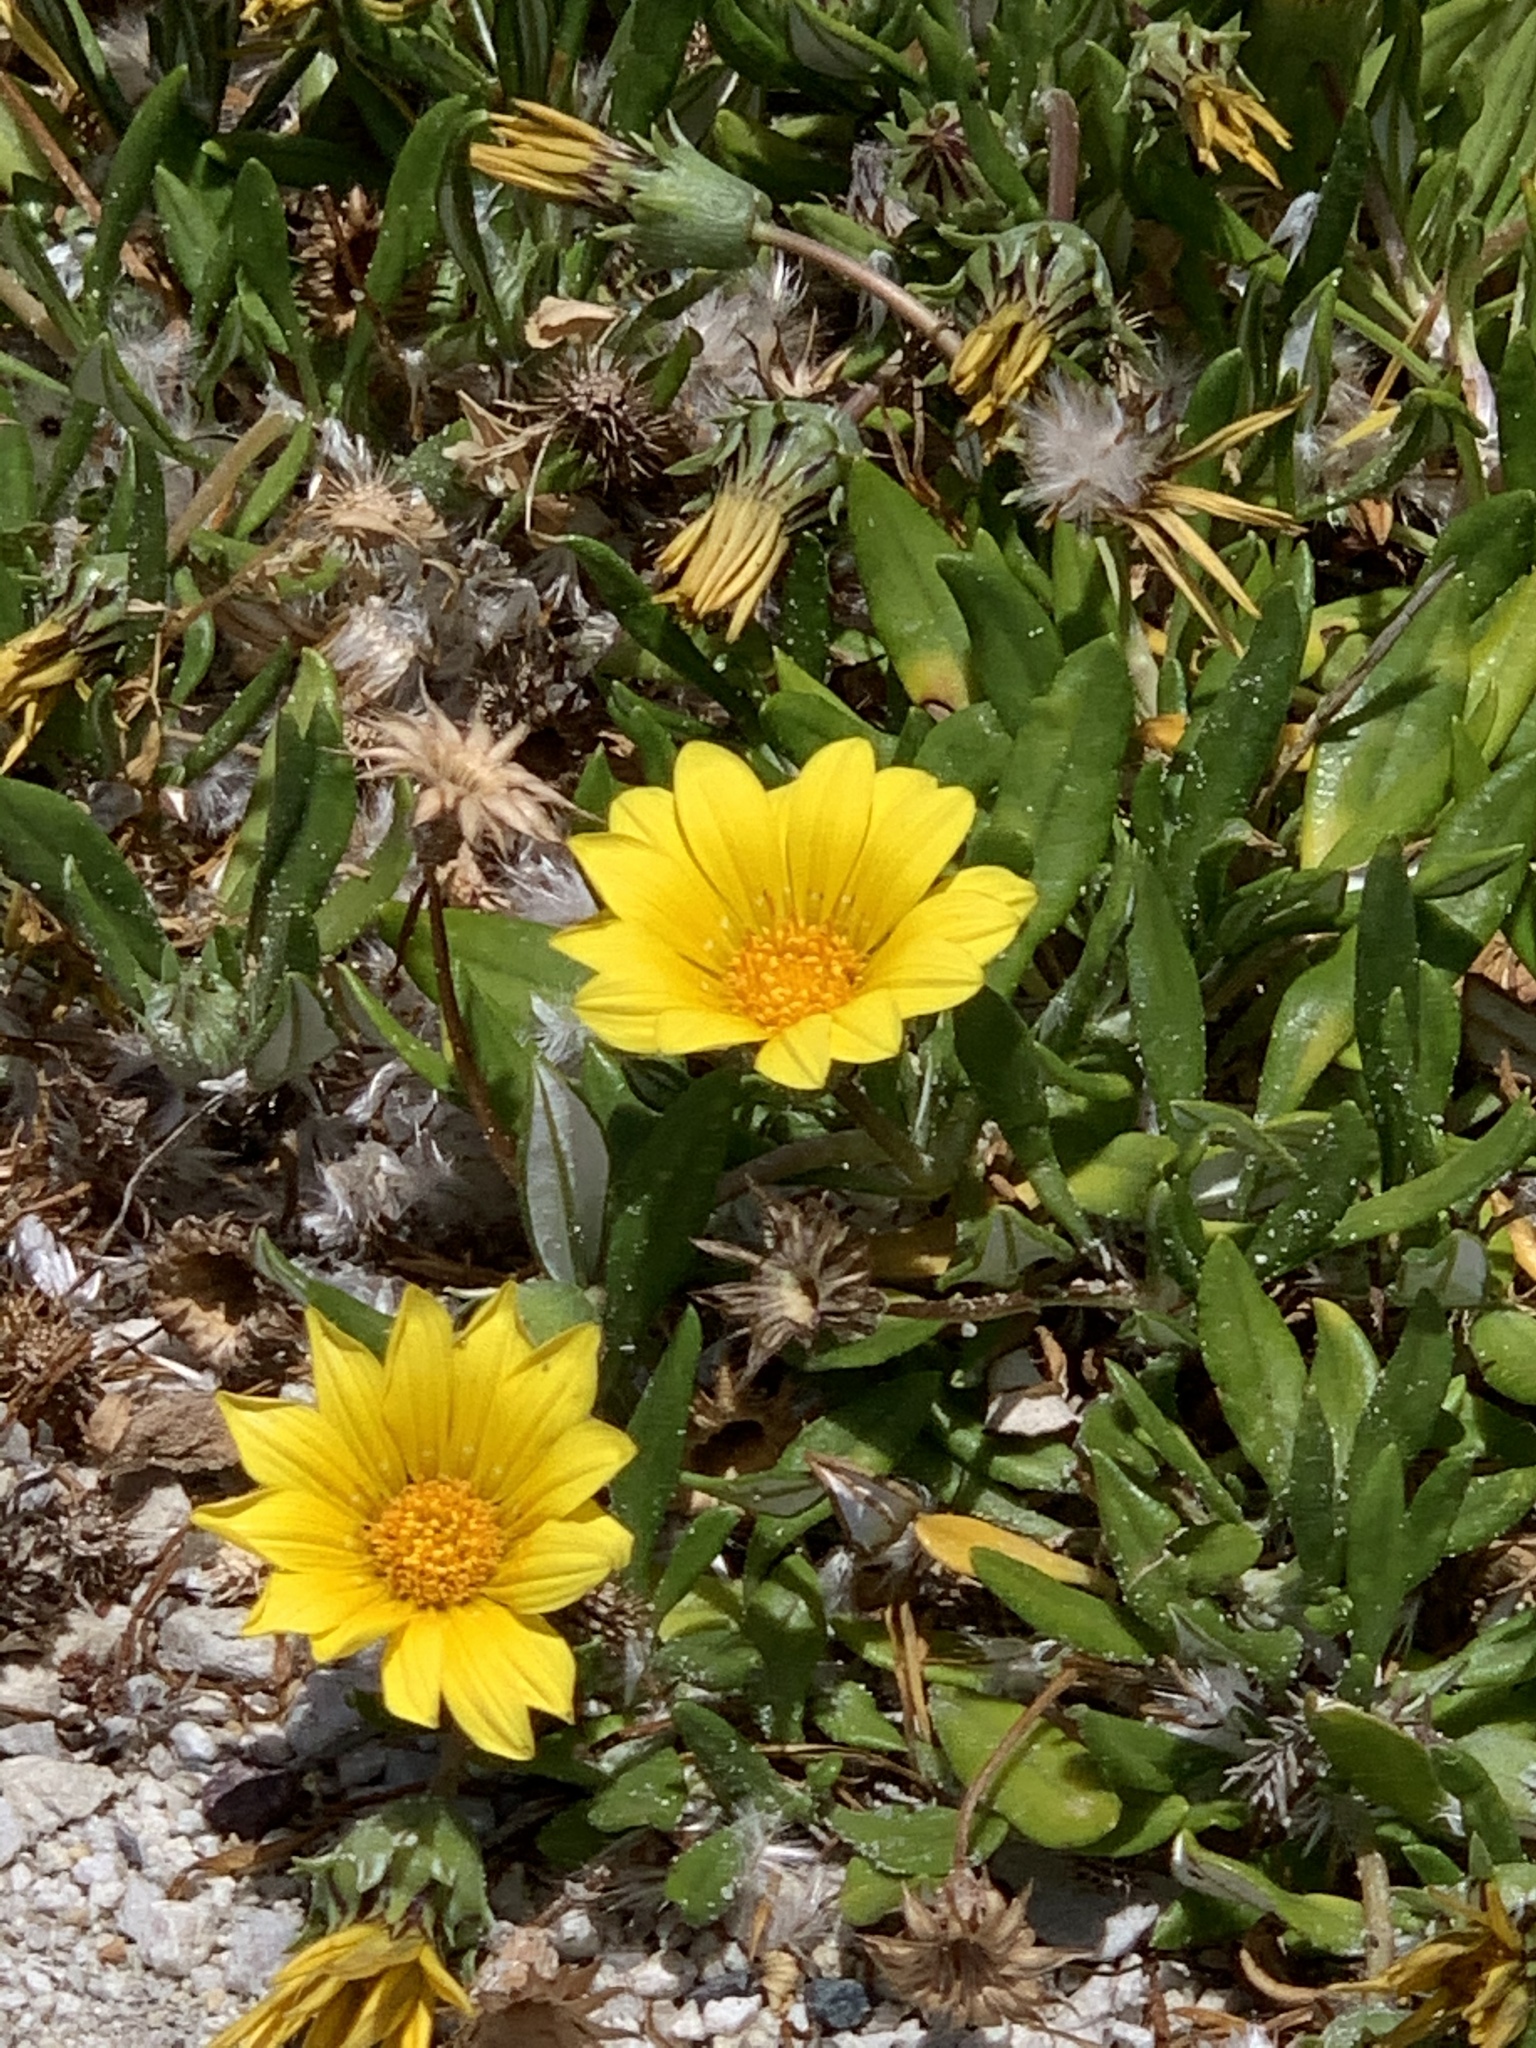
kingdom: Plantae
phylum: Tracheophyta
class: Magnoliopsida
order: Asterales
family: Asteraceae
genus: Gazania
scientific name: Gazania rigens
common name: Treasureflower
